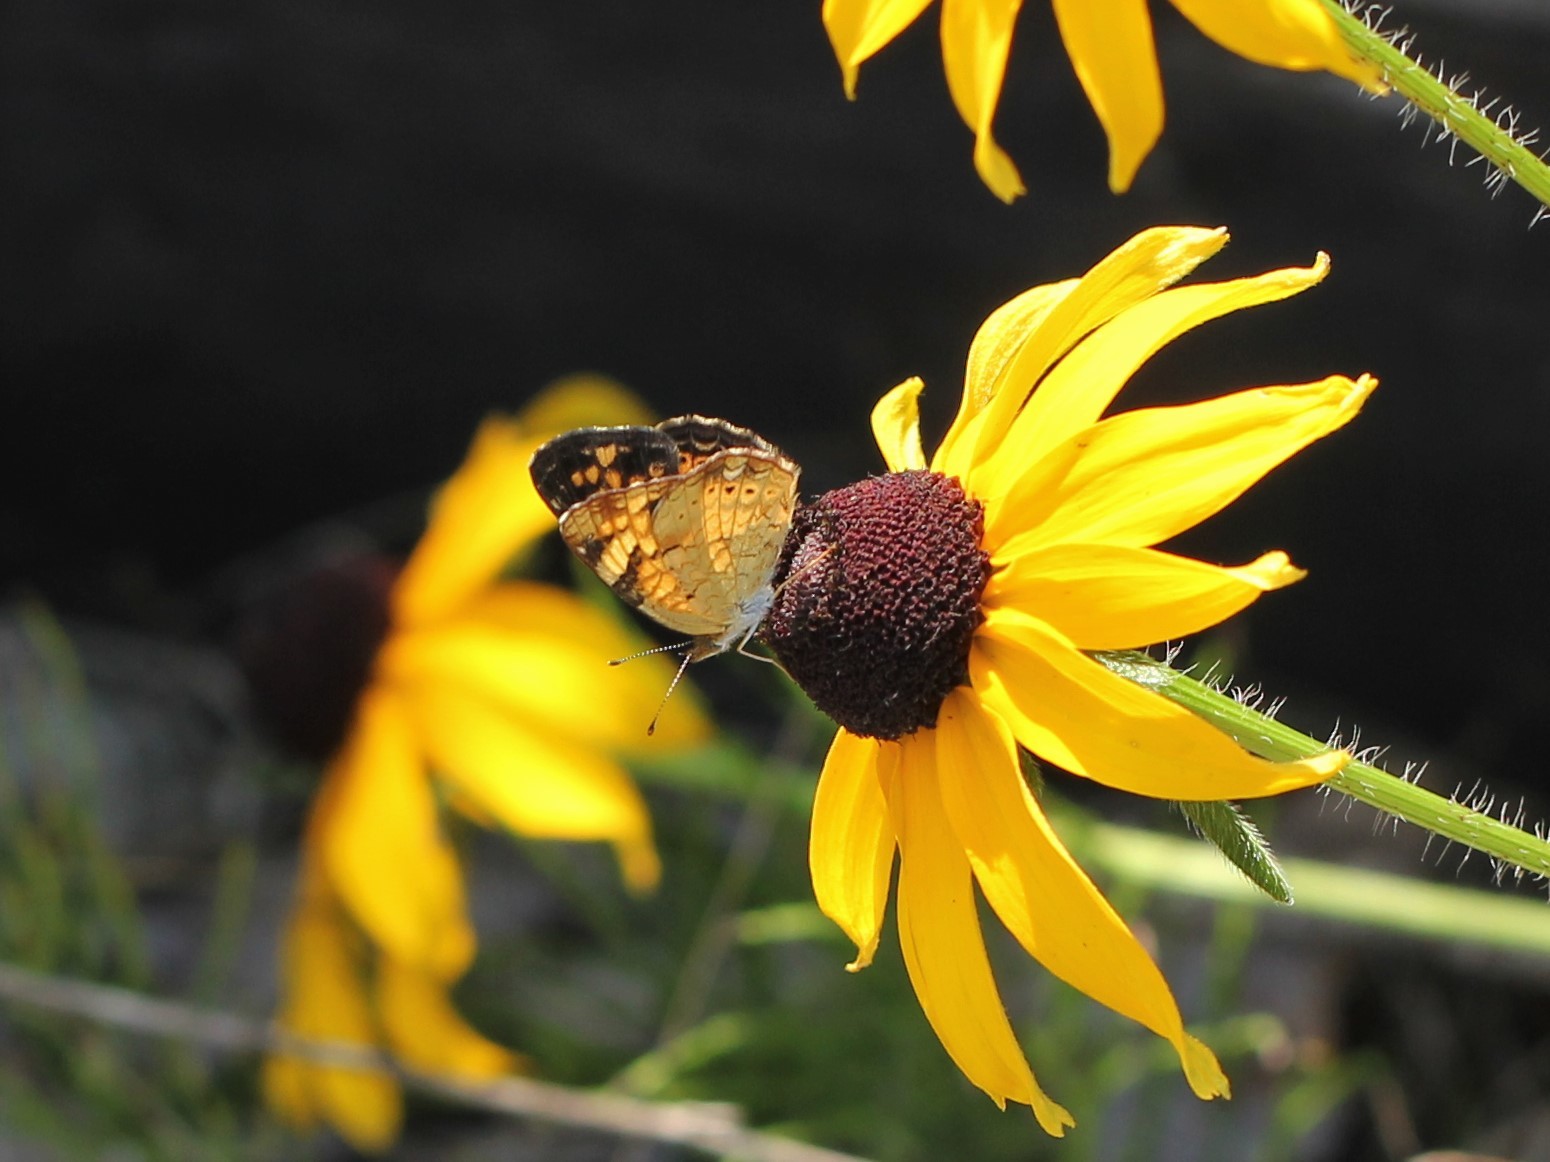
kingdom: Animalia
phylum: Arthropoda
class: Insecta
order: Lepidoptera
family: Nymphalidae
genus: Phyciodes
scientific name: Phyciodes tharos
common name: Pearl crescent
